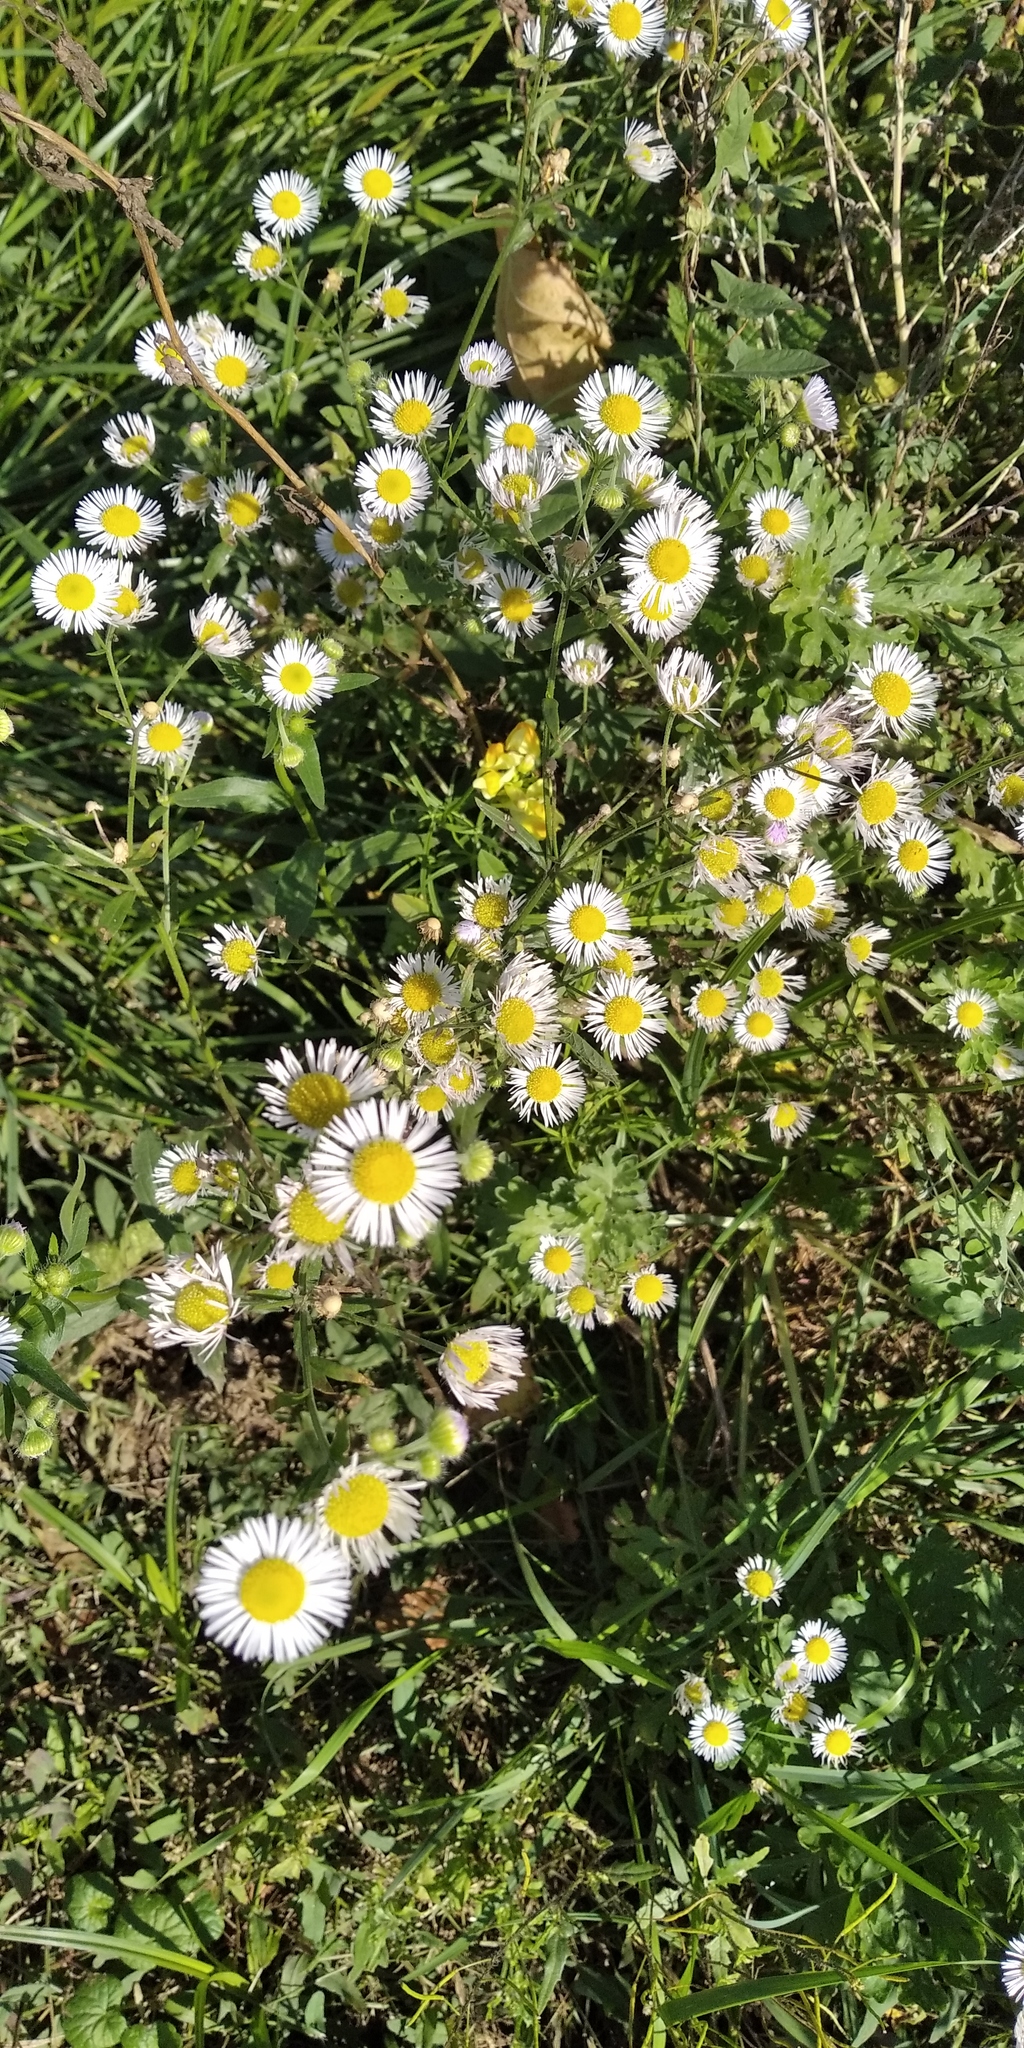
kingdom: Plantae
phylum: Tracheophyta
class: Magnoliopsida
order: Asterales
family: Asteraceae
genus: Erigeron
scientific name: Erigeron annuus
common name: Tall fleabane
